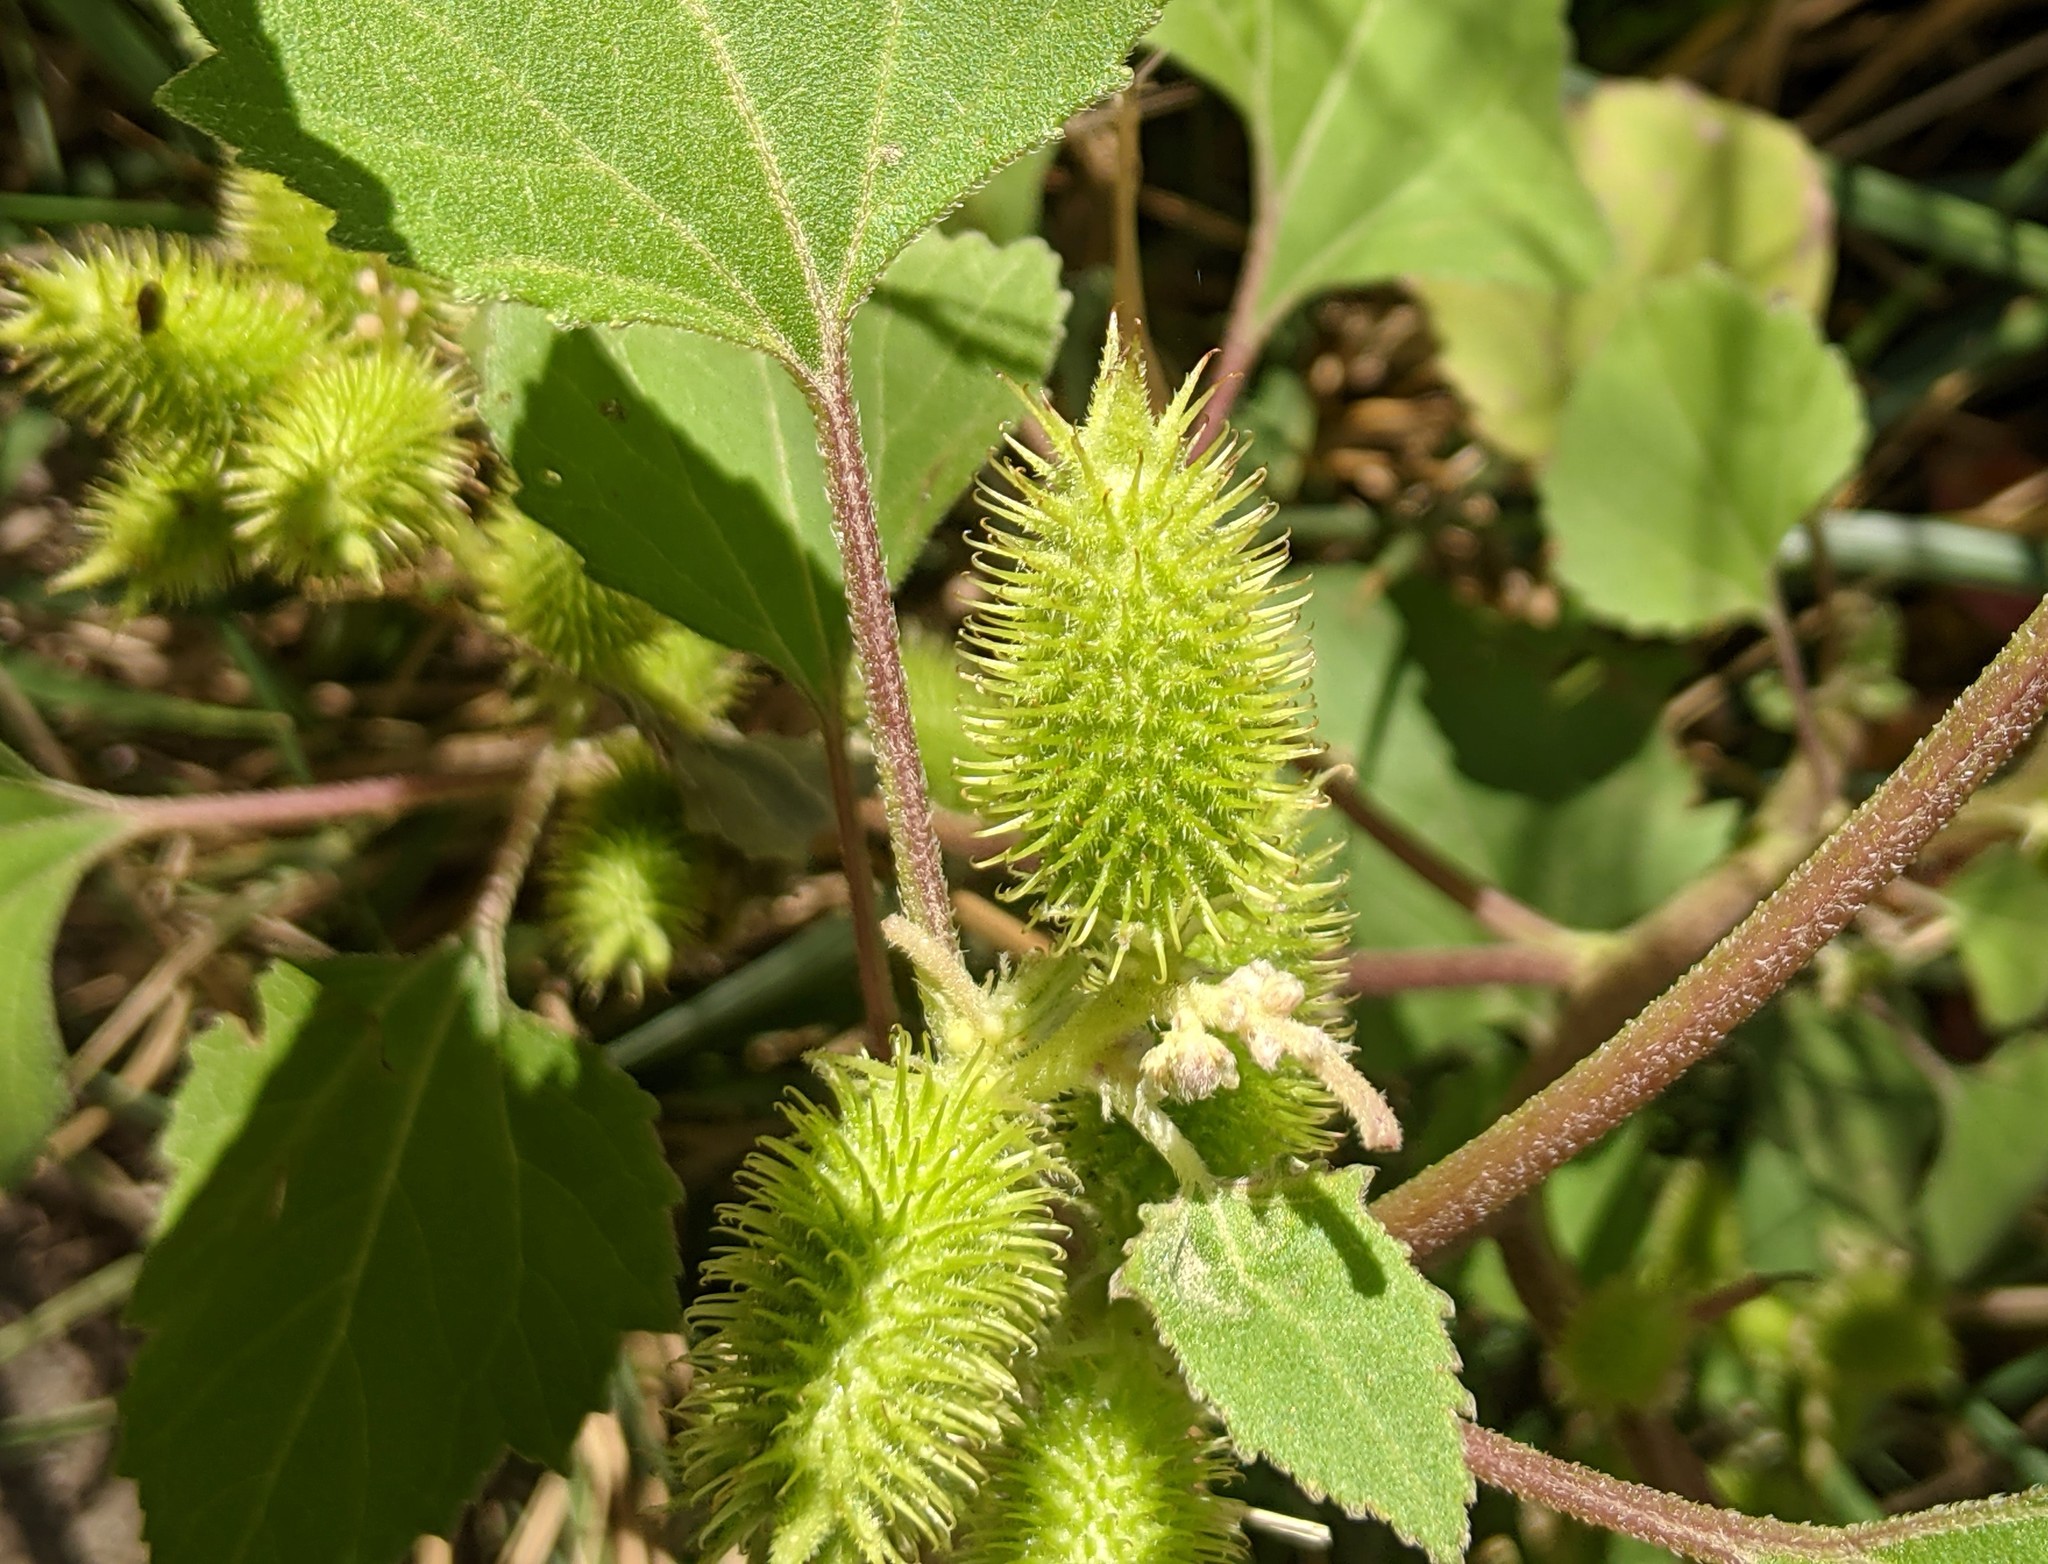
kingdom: Plantae
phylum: Tracheophyta
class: Magnoliopsida
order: Asterales
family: Asteraceae
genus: Xanthium
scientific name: Xanthium strumarium
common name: Rough cocklebur
